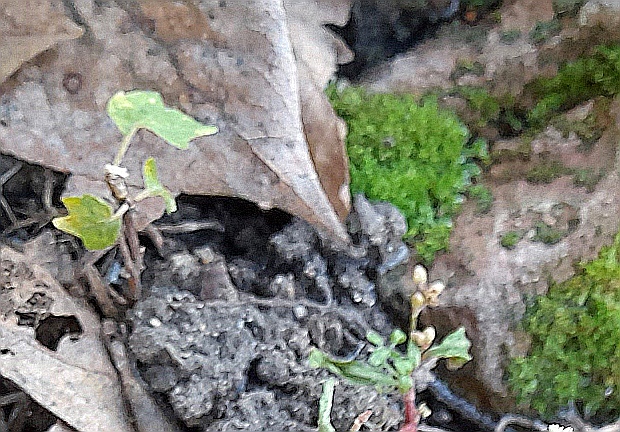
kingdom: Plantae
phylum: Tracheophyta
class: Magnoliopsida
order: Sapindales
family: Sapindaceae
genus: Acer
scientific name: Acer negundo
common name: Ashleaf maple
